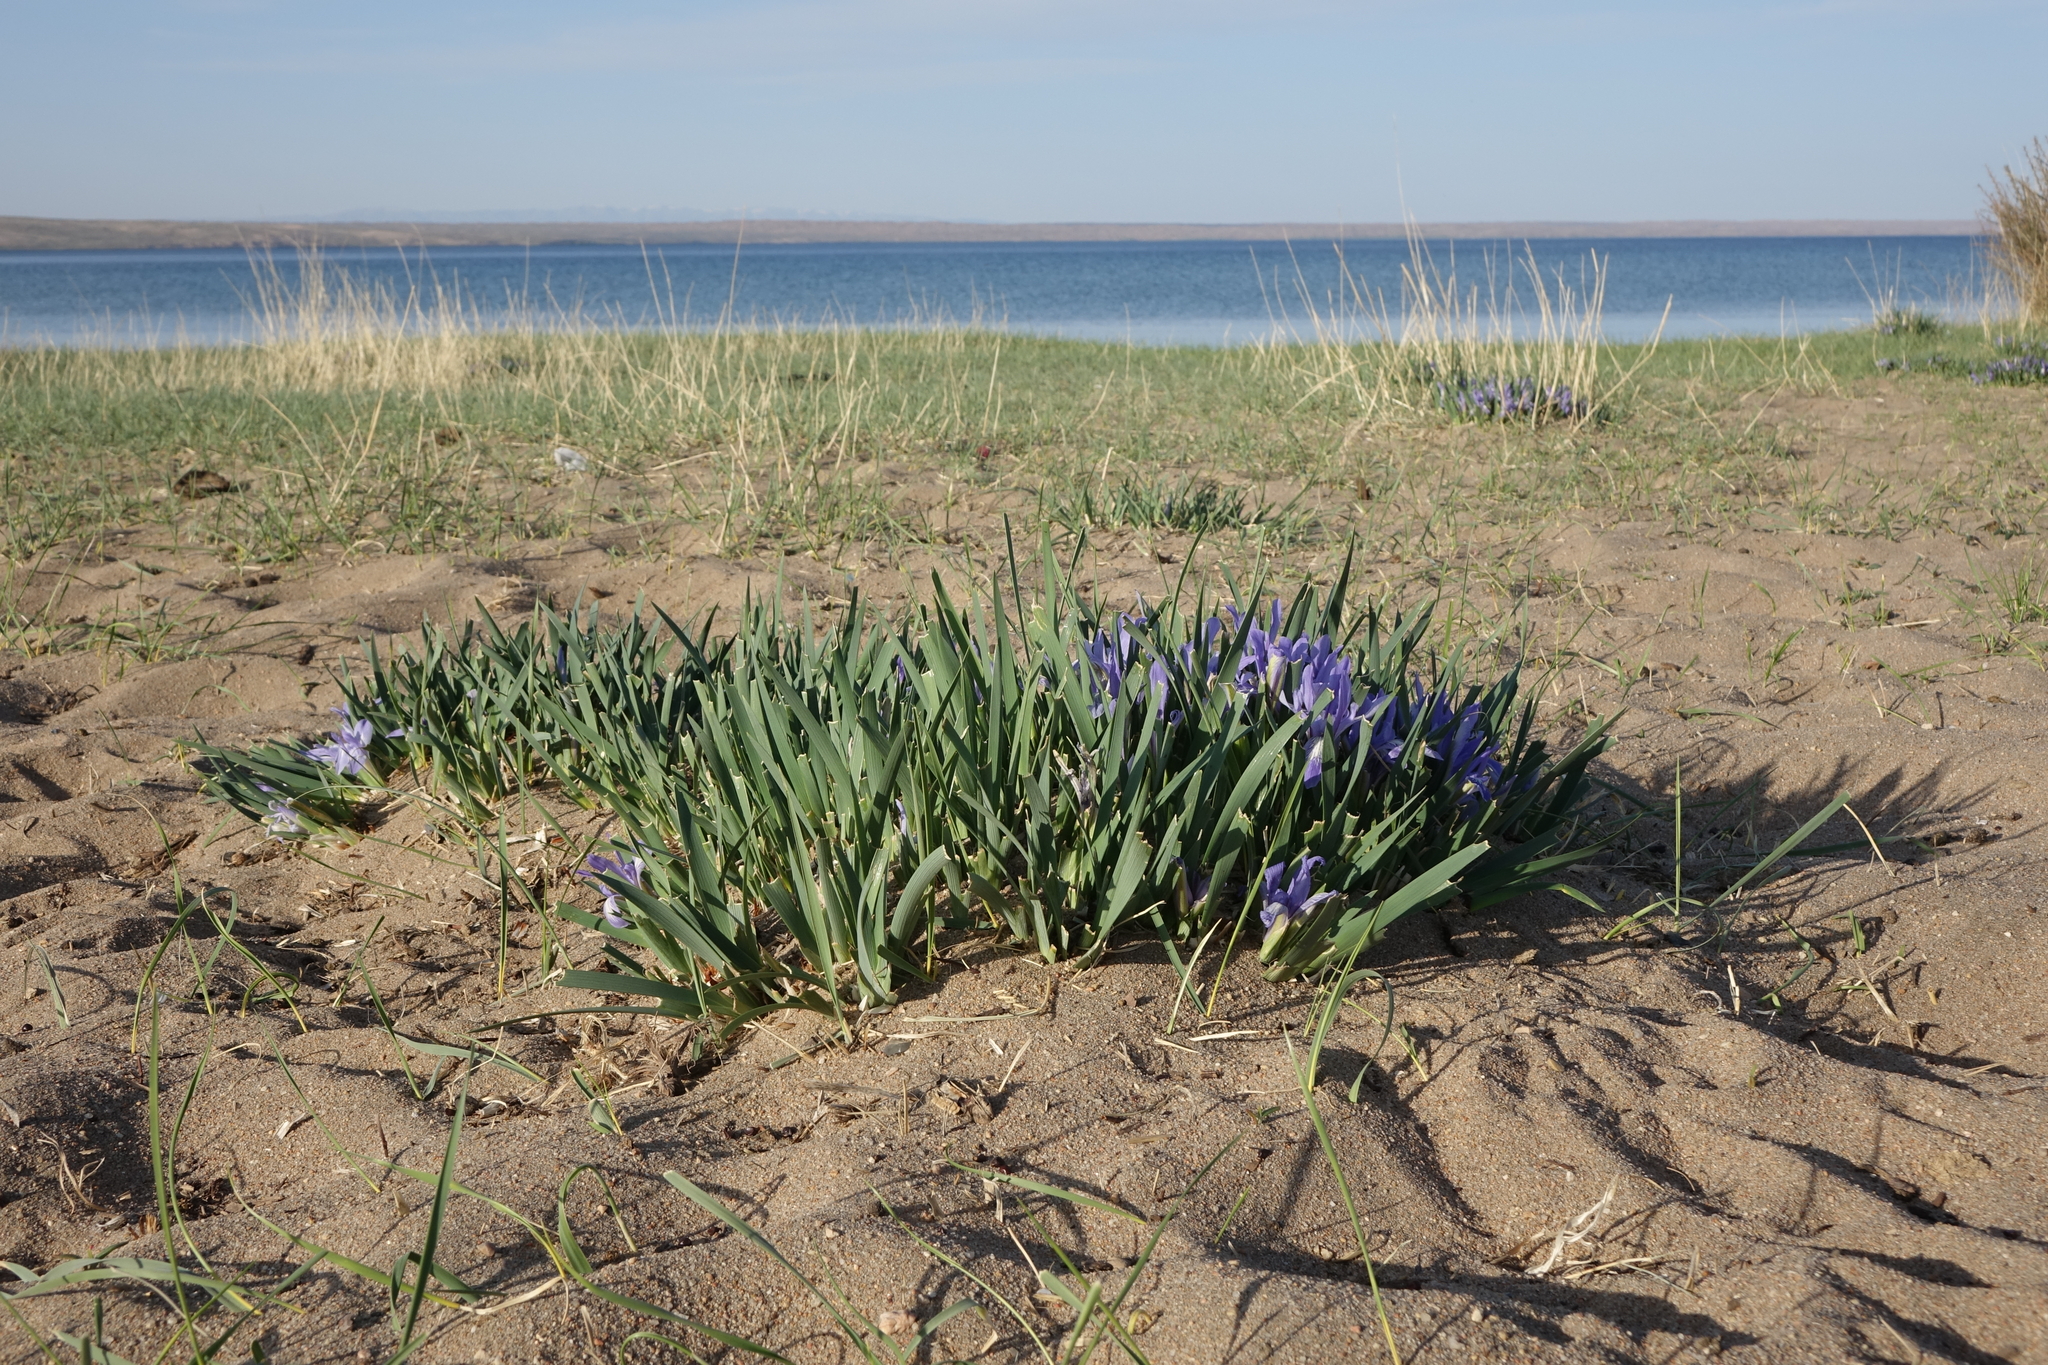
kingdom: Plantae
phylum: Tracheophyta
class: Liliopsida
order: Asparagales
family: Iridaceae
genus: Iris
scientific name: Iris lactea
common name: White-flower chinese iris
